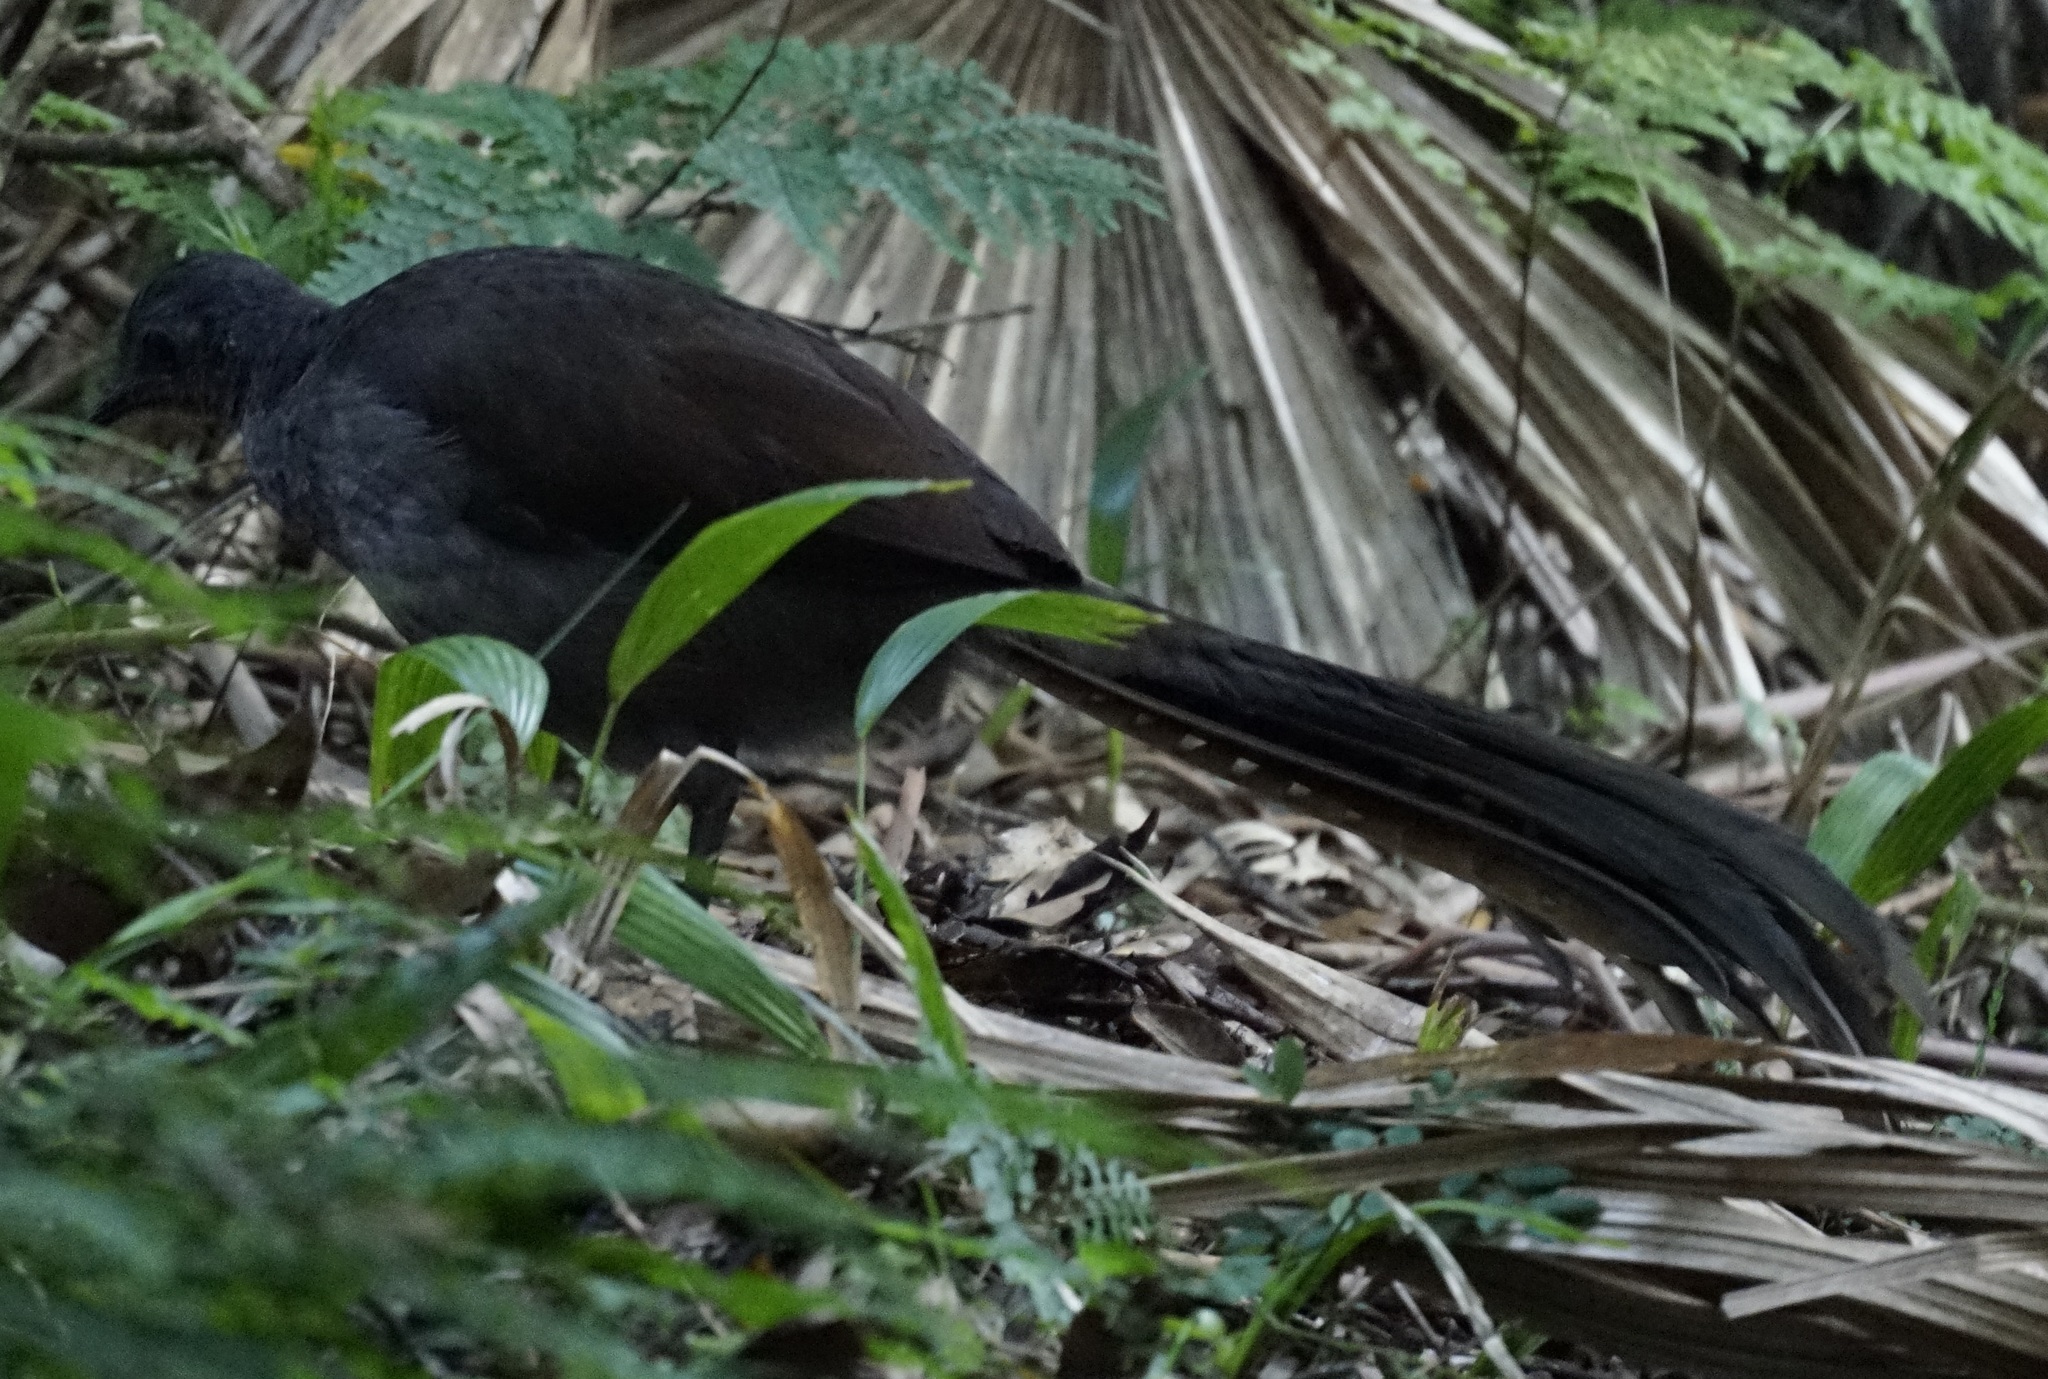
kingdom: Animalia
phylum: Chordata
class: Aves
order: Passeriformes
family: Menuridae
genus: Menura
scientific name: Menura novaehollandiae
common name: Superb lyrebird
